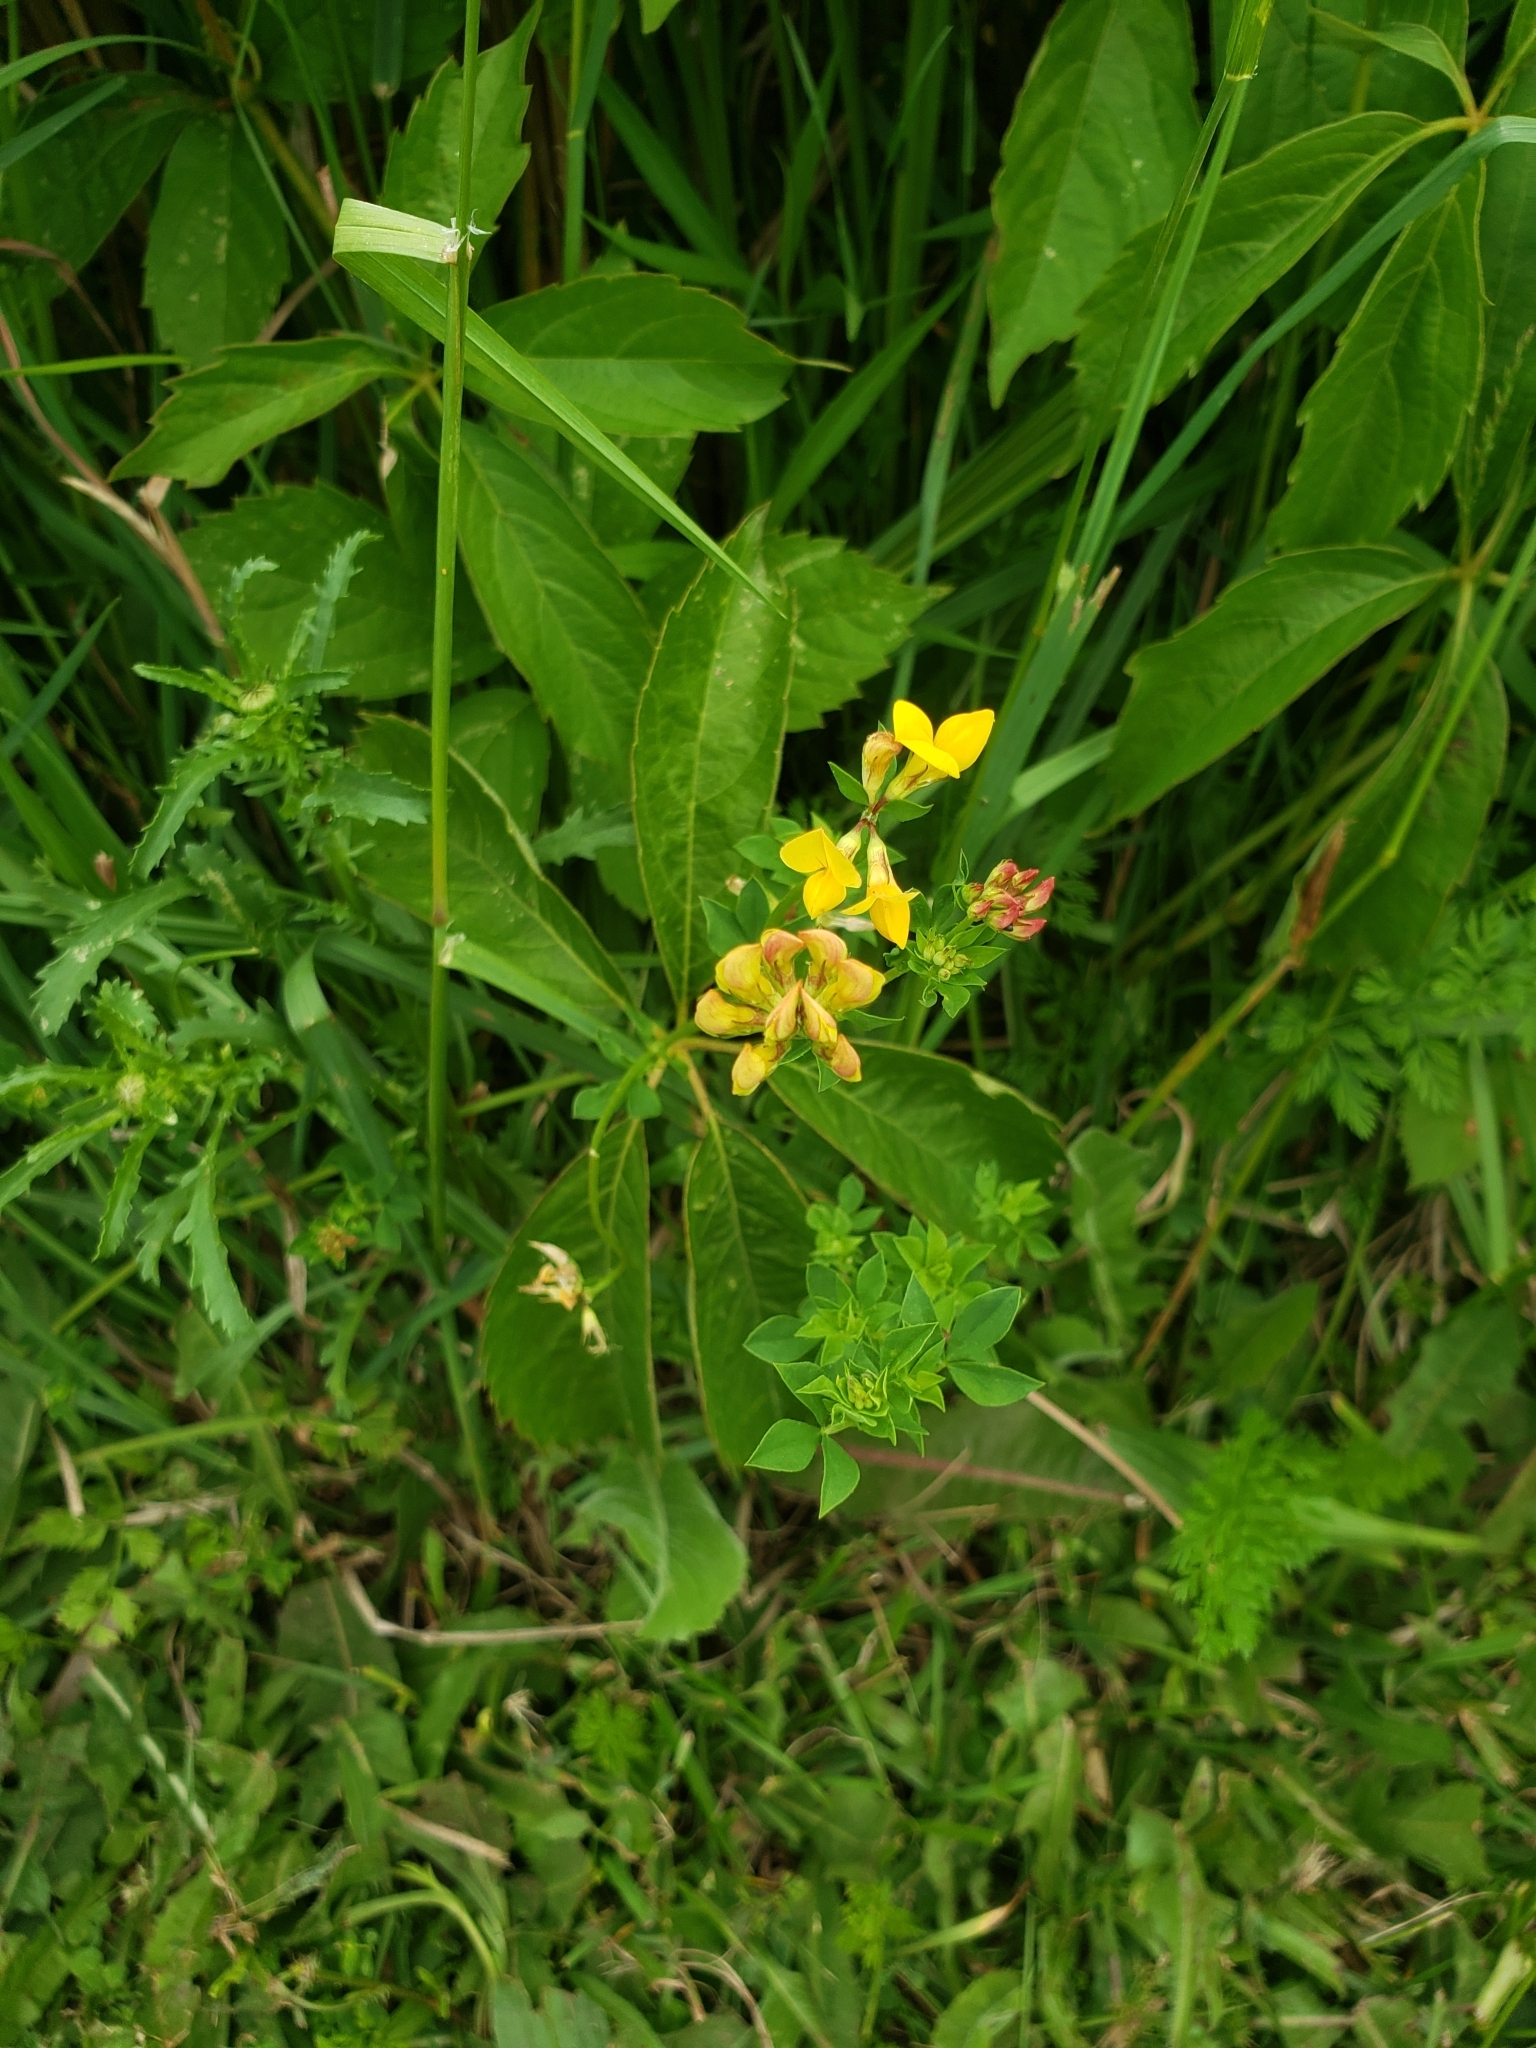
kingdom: Plantae
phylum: Tracheophyta
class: Magnoliopsida
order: Fabales
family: Fabaceae
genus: Lotus
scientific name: Lotus corniculatus
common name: Common bird's-foot-trefoil
